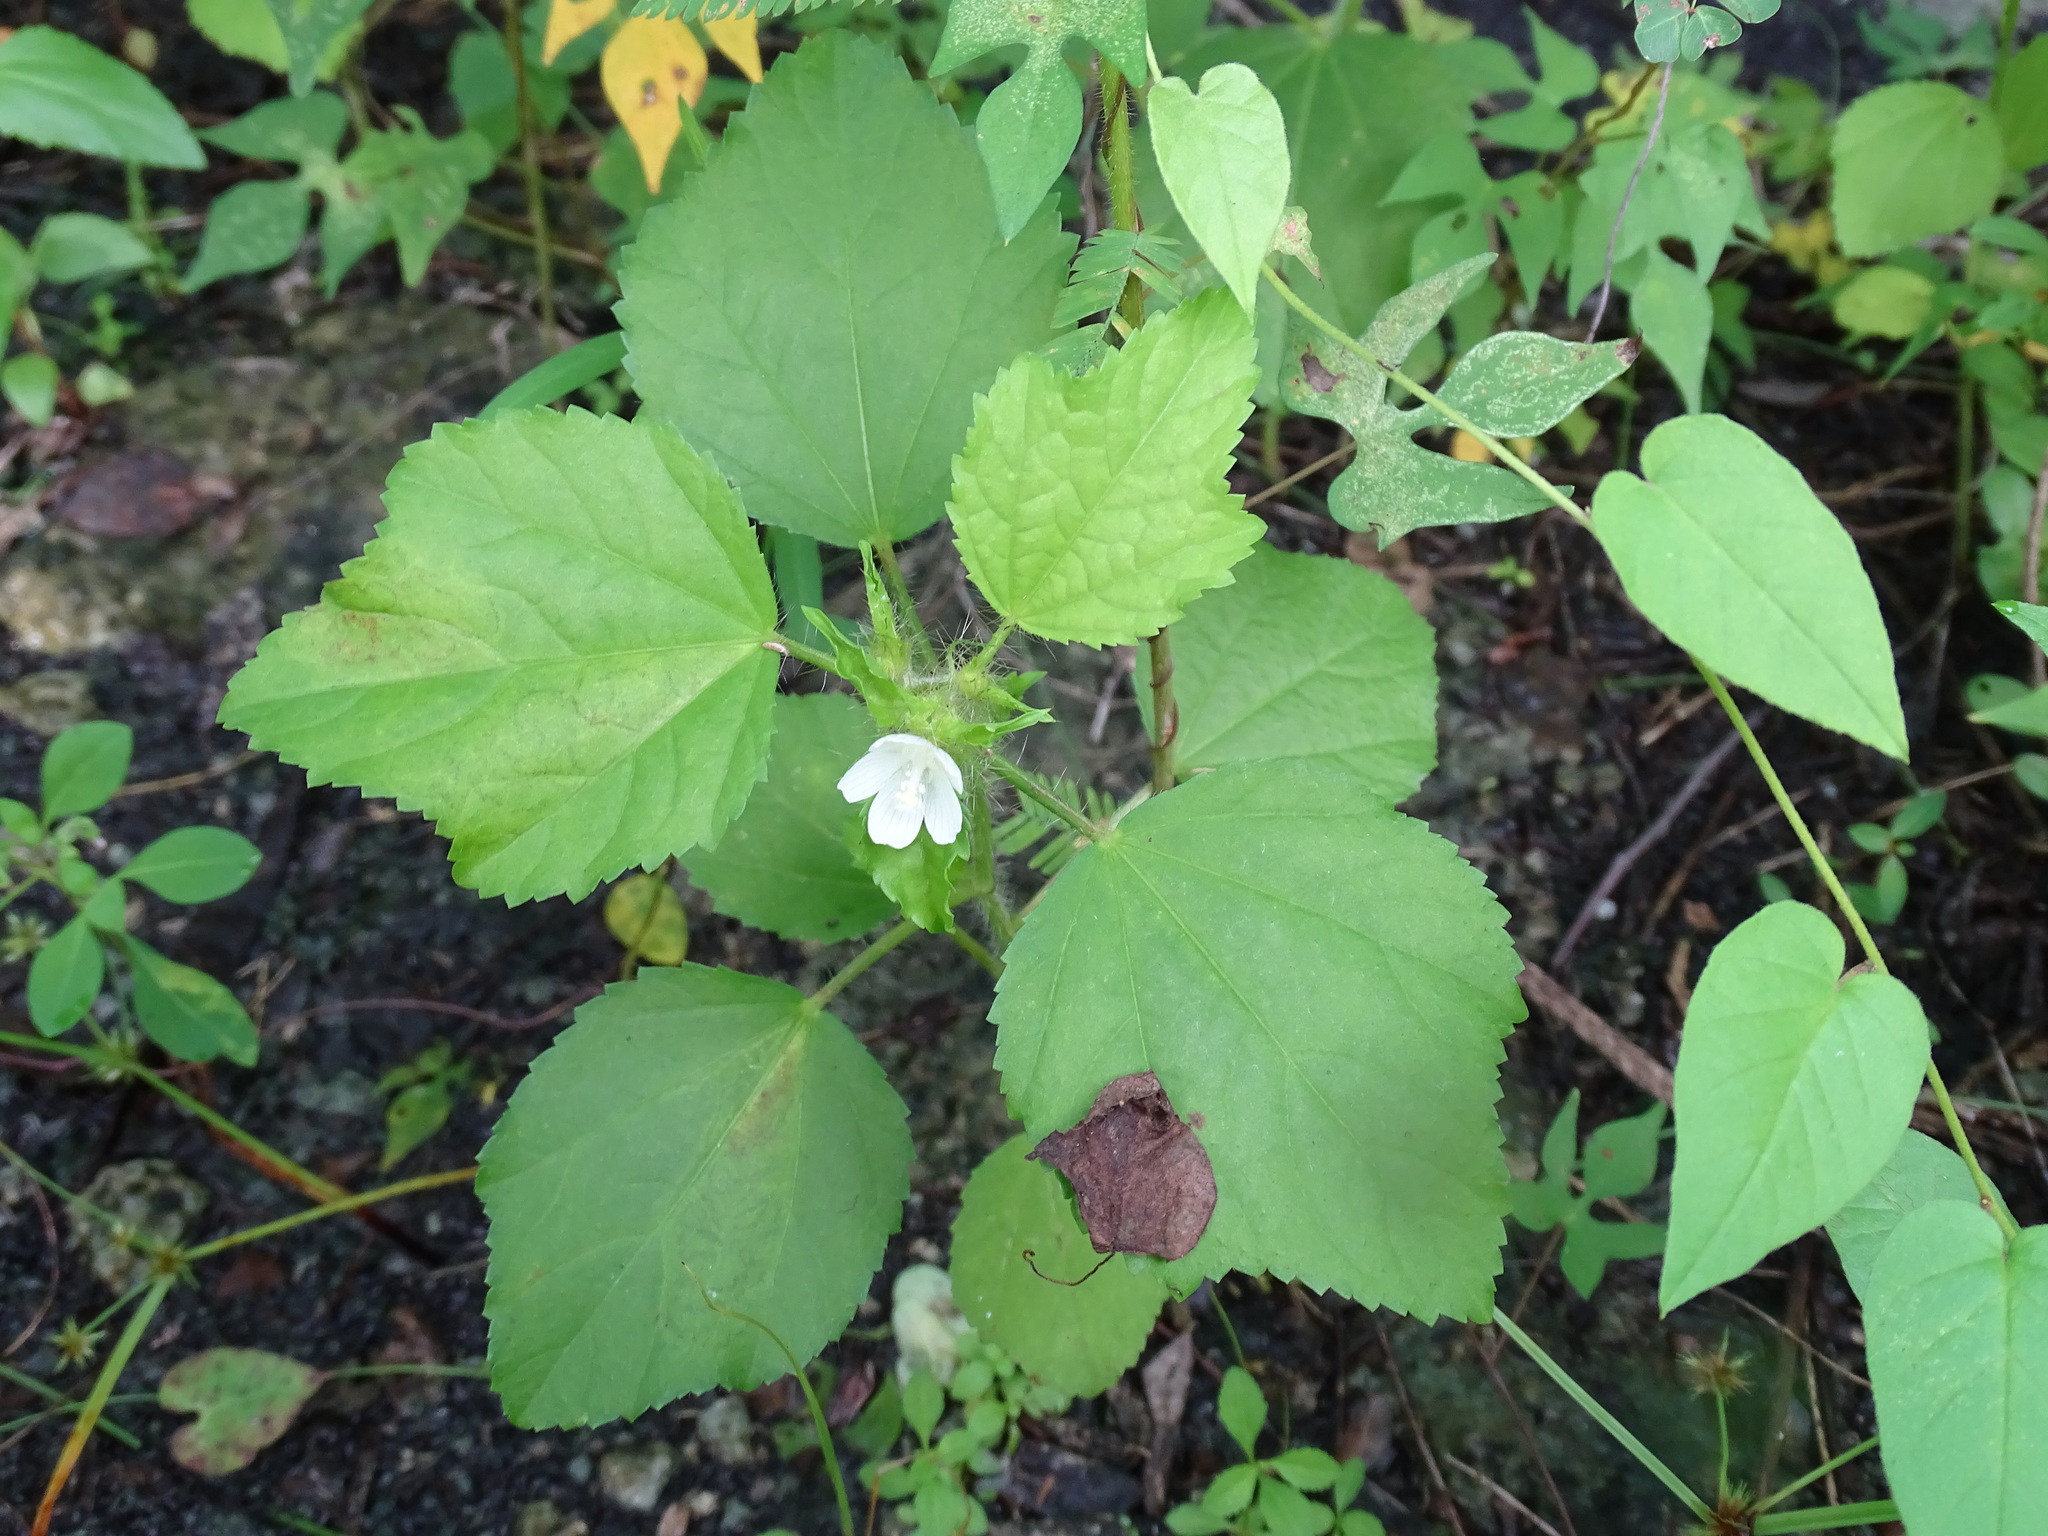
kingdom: Plantae
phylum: Tracheophyta
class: Magnoliopsida
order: Malvales
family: Malvaceae
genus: Malachra
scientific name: Malachra fasciata
